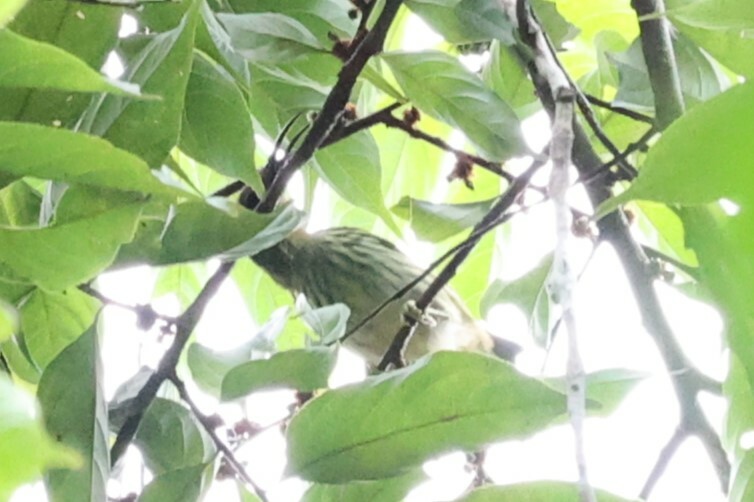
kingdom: Animalia
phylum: Chordata
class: Aves
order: Passeriformes
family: Thraupidae
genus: Cyanerpes
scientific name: Cyanerpes caeruleus
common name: Purple honeycreeper
